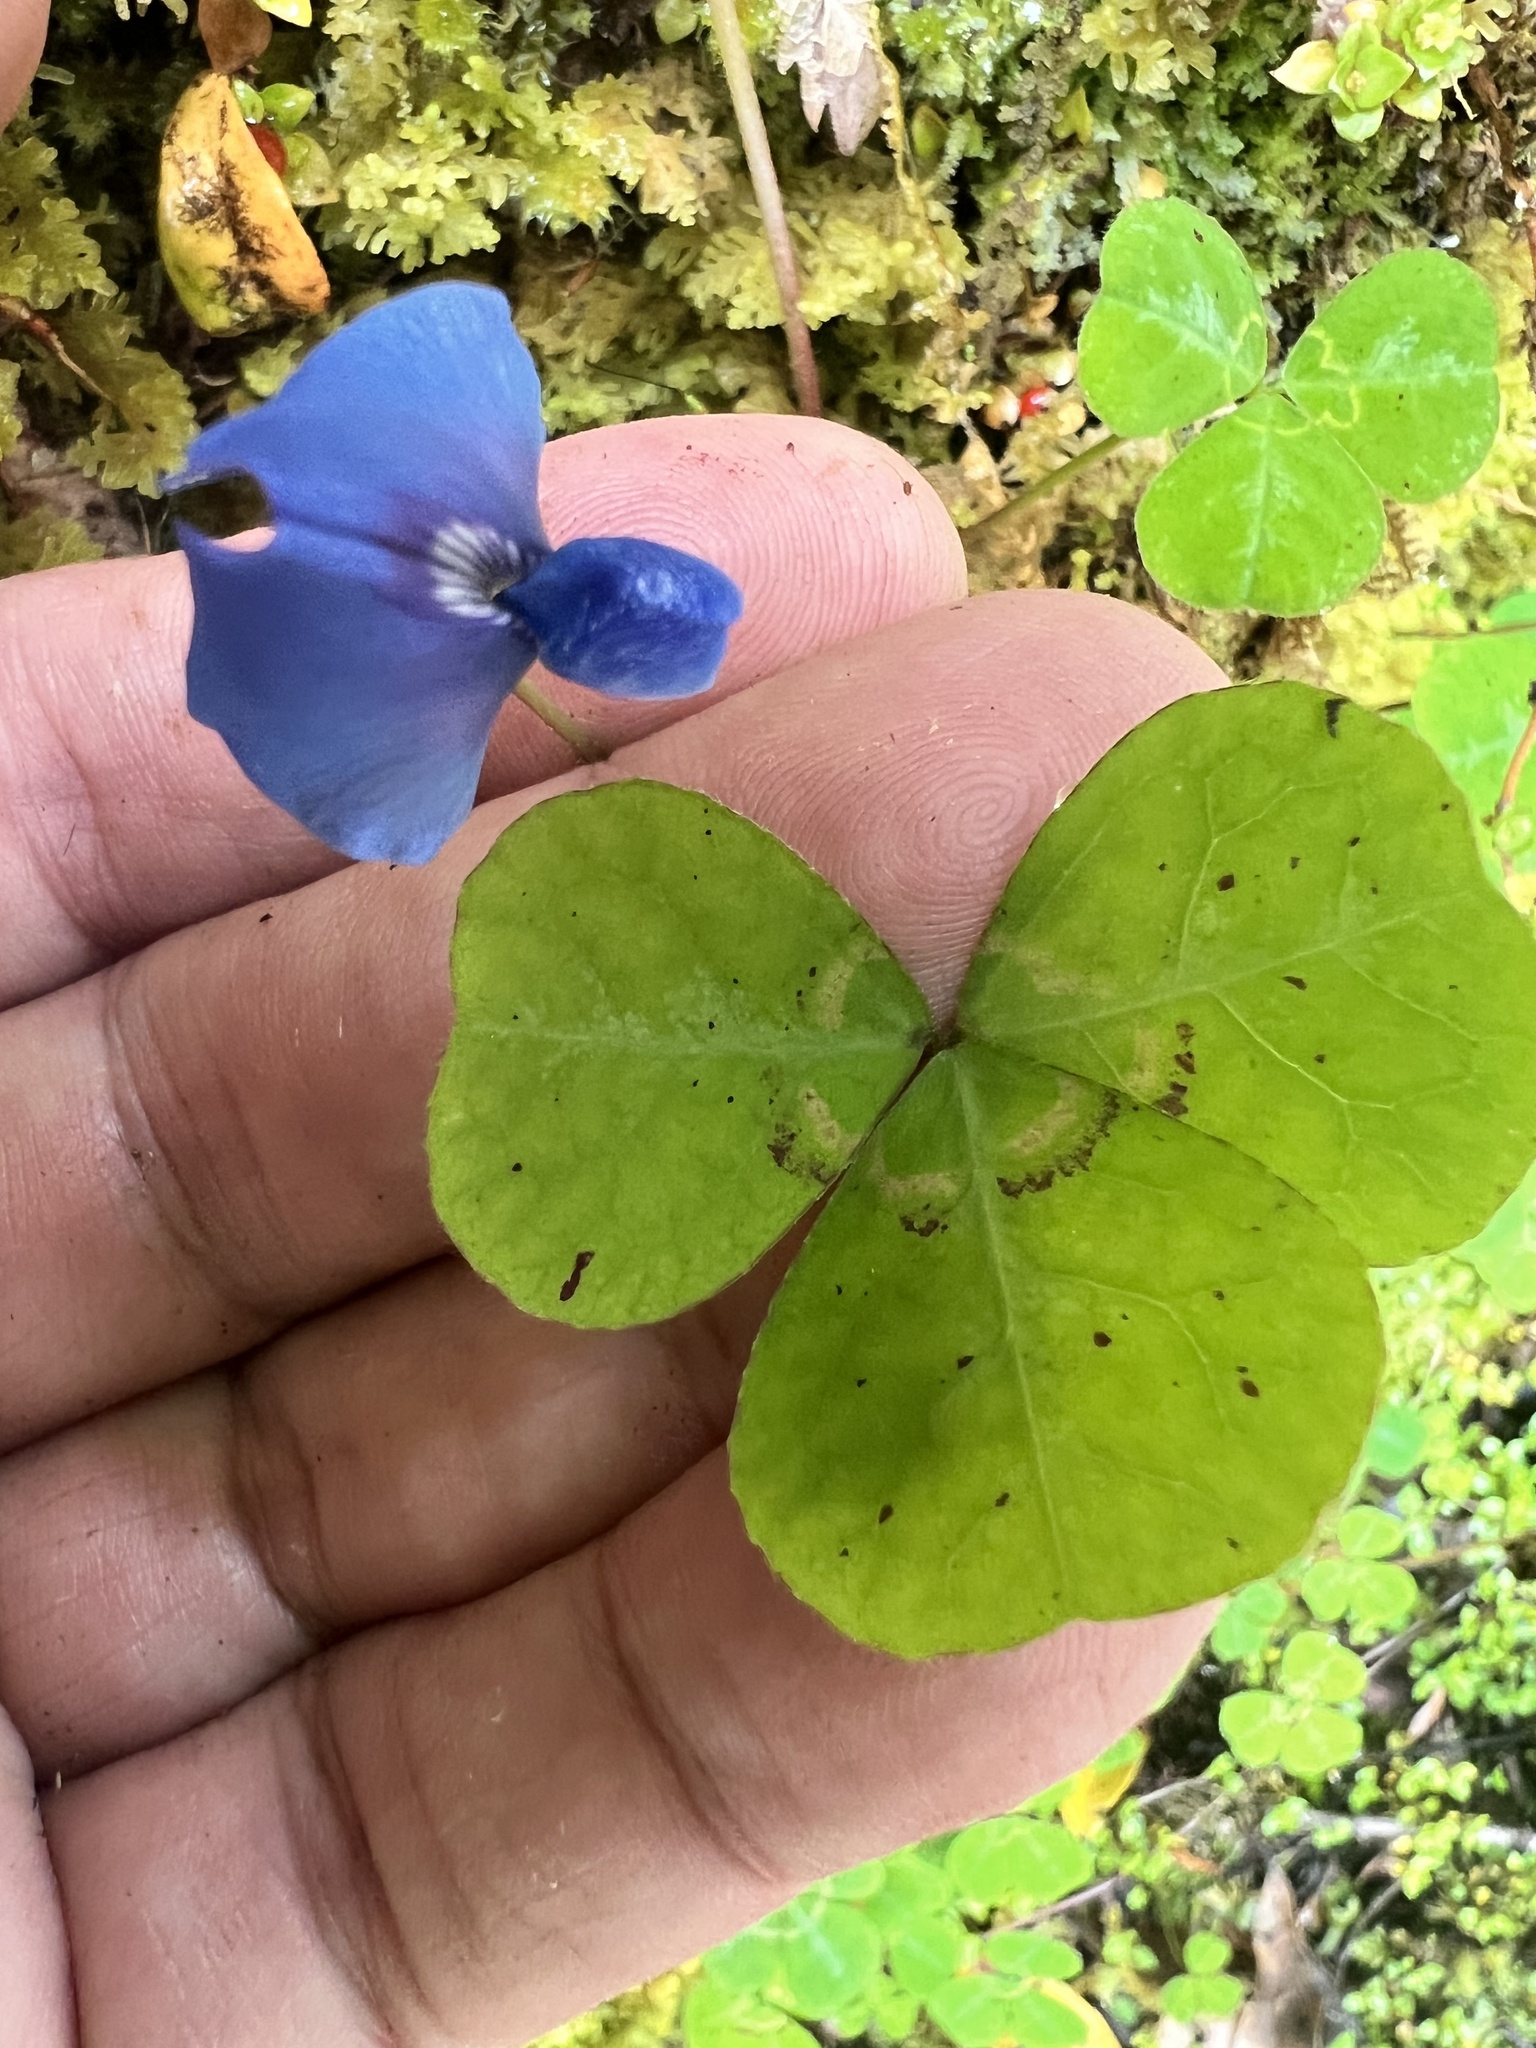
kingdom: Plantae
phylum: Tracheophyta
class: Magnoliopsida
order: Fabales
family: Fabaceae
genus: Parochetus
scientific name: Parochetus communis
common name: Blue oxalis
